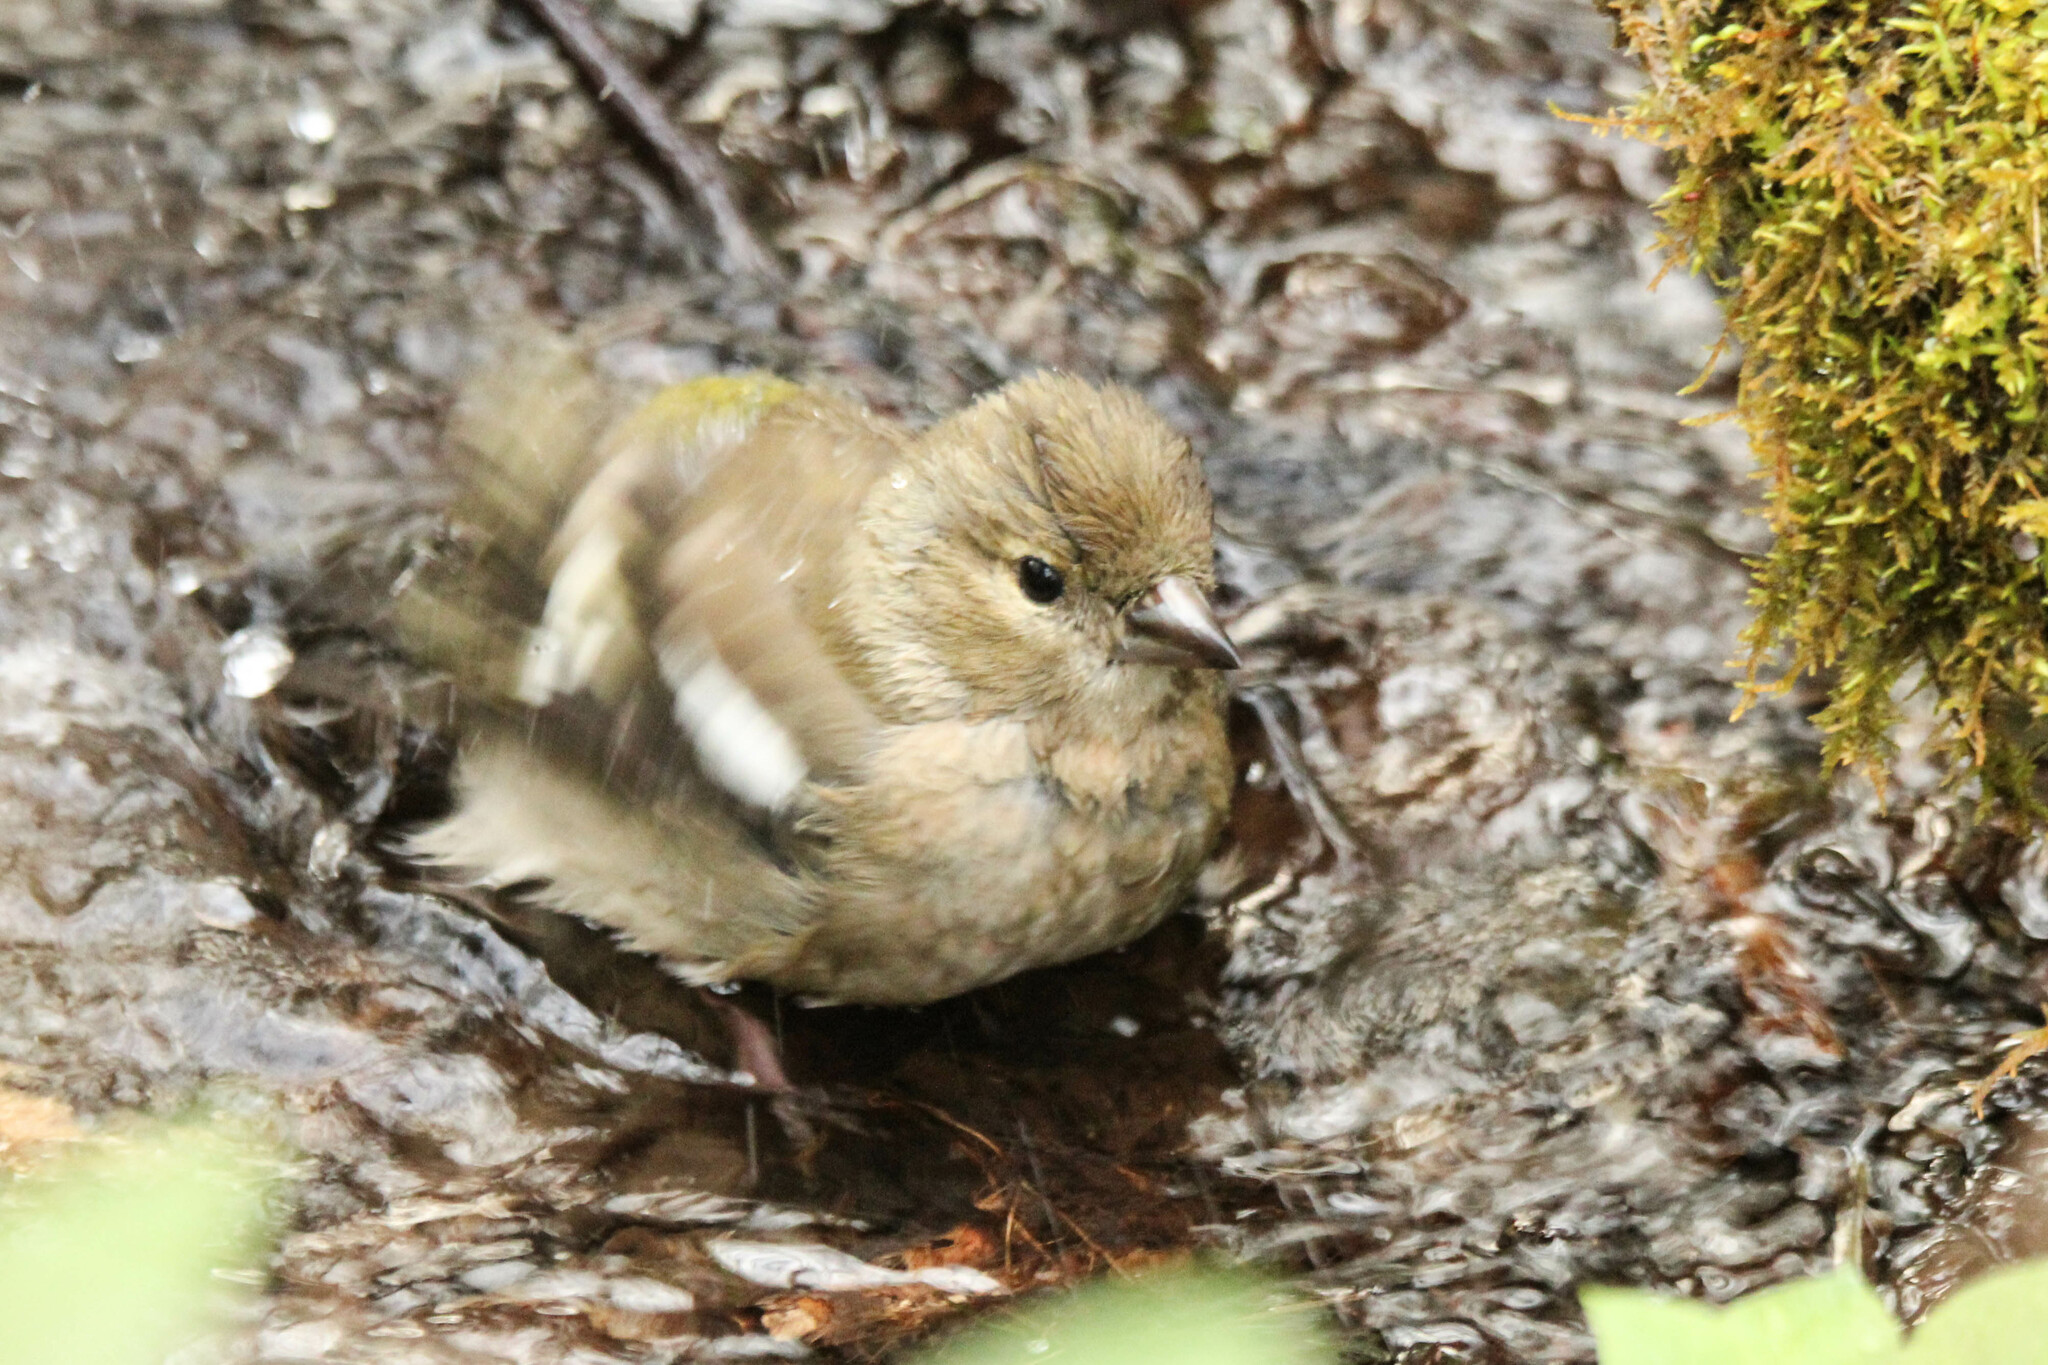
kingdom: Animalia
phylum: Chordata
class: Aves
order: Passeriformes
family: Fringillidae
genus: Fringilla
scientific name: Fringilla coelebs
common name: Common chaffinch
